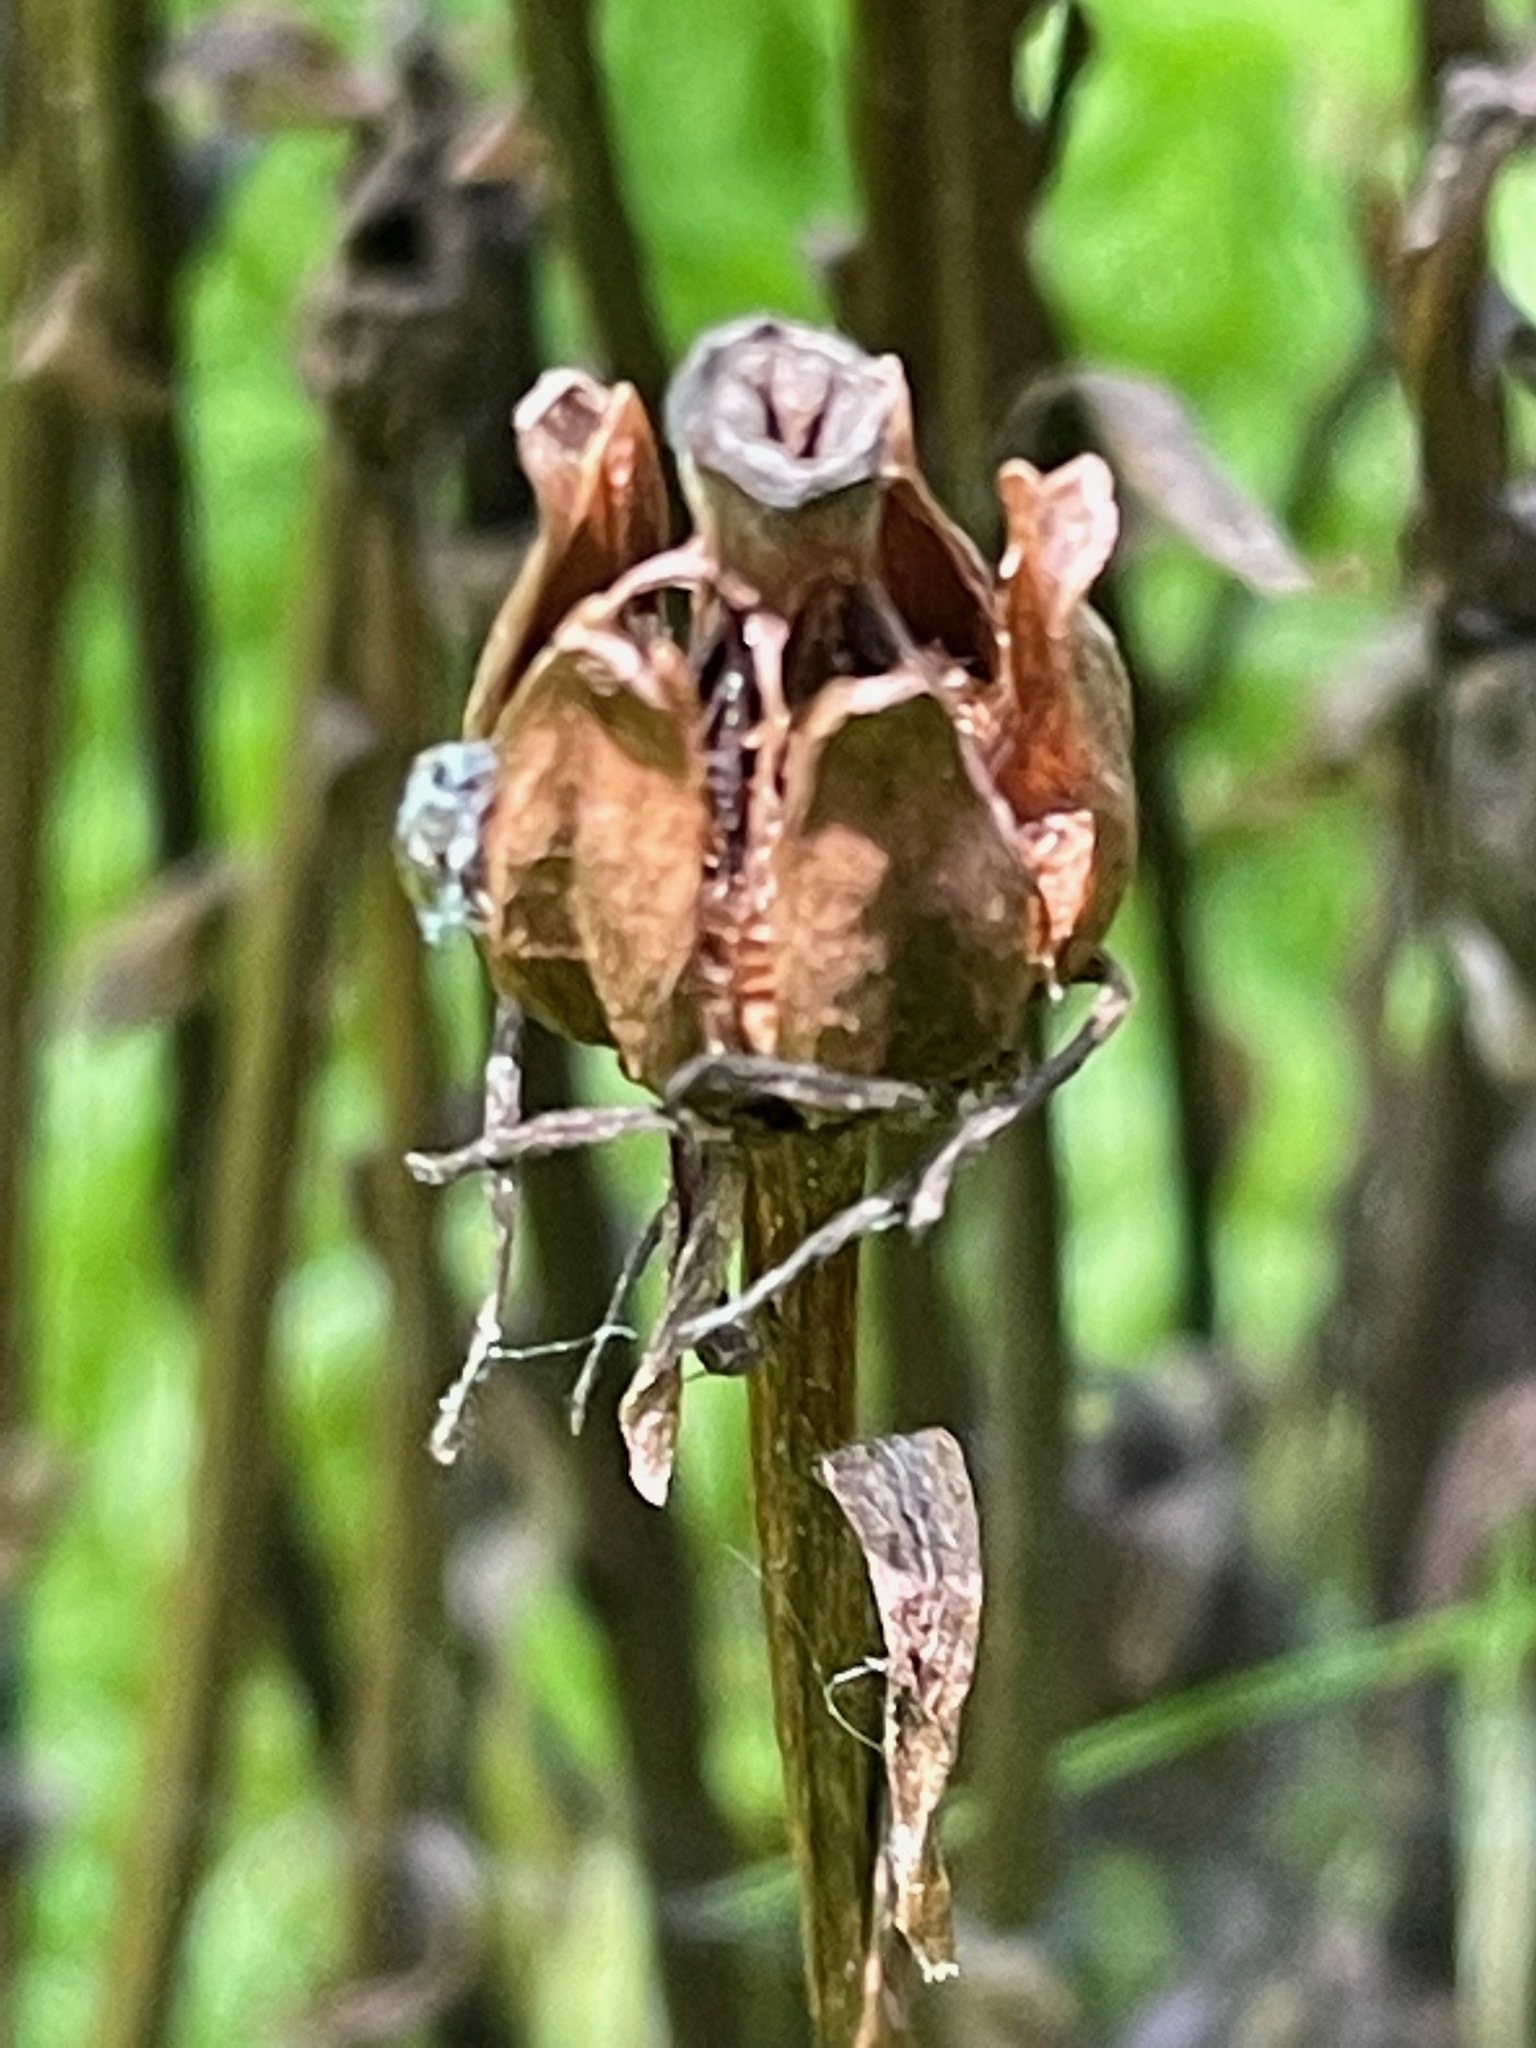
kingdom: Plantae
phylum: Tracheophyta
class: Magnoliopsida
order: Ericales
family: Ericaceae
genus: Monotropa
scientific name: Monotropa uniflora
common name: Convulsion root
